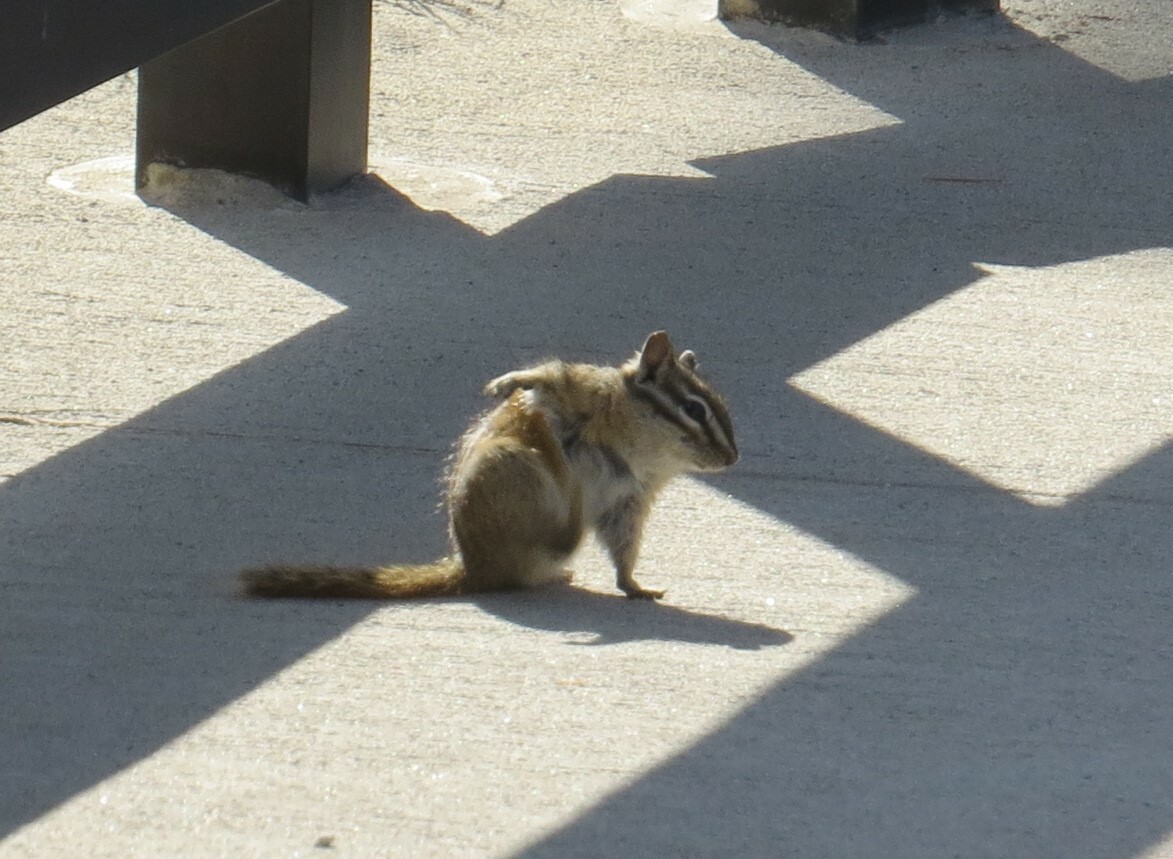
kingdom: Animalia
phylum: Chordata
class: Mammalia
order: Rodentia
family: Sciuridae
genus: Tamias
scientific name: Tamias minimus
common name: Least chipmunk
